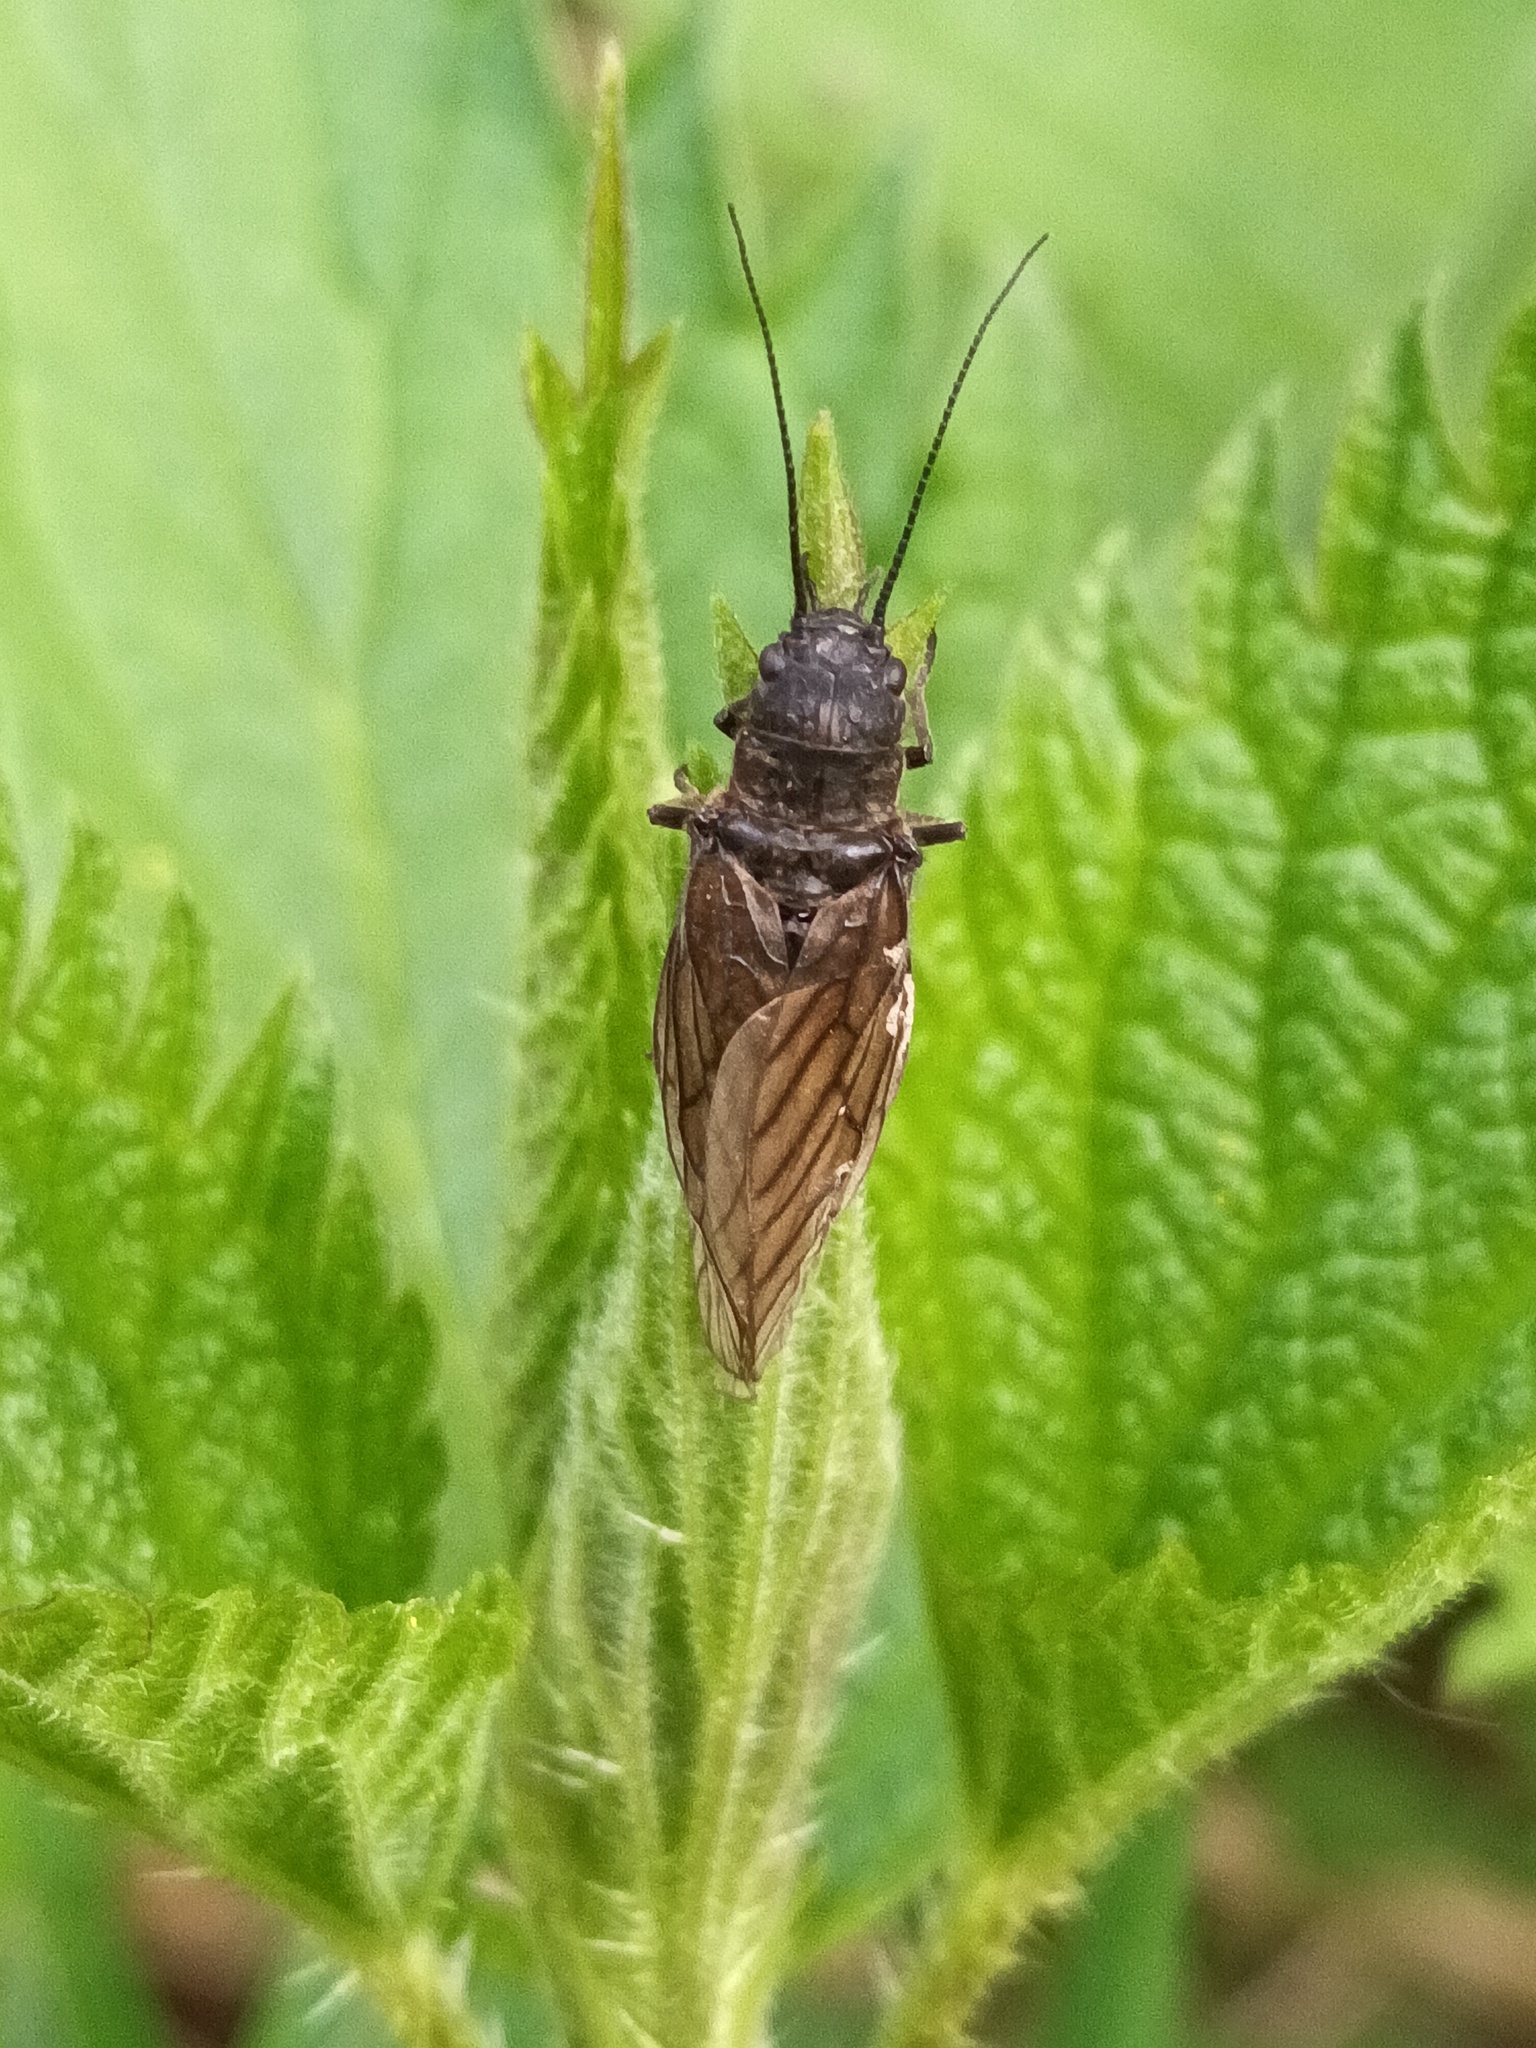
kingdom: Animalia
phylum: Arthropoda
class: Insecta
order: Megaloptera
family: Sialidae
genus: Sialis
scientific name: Sialis
